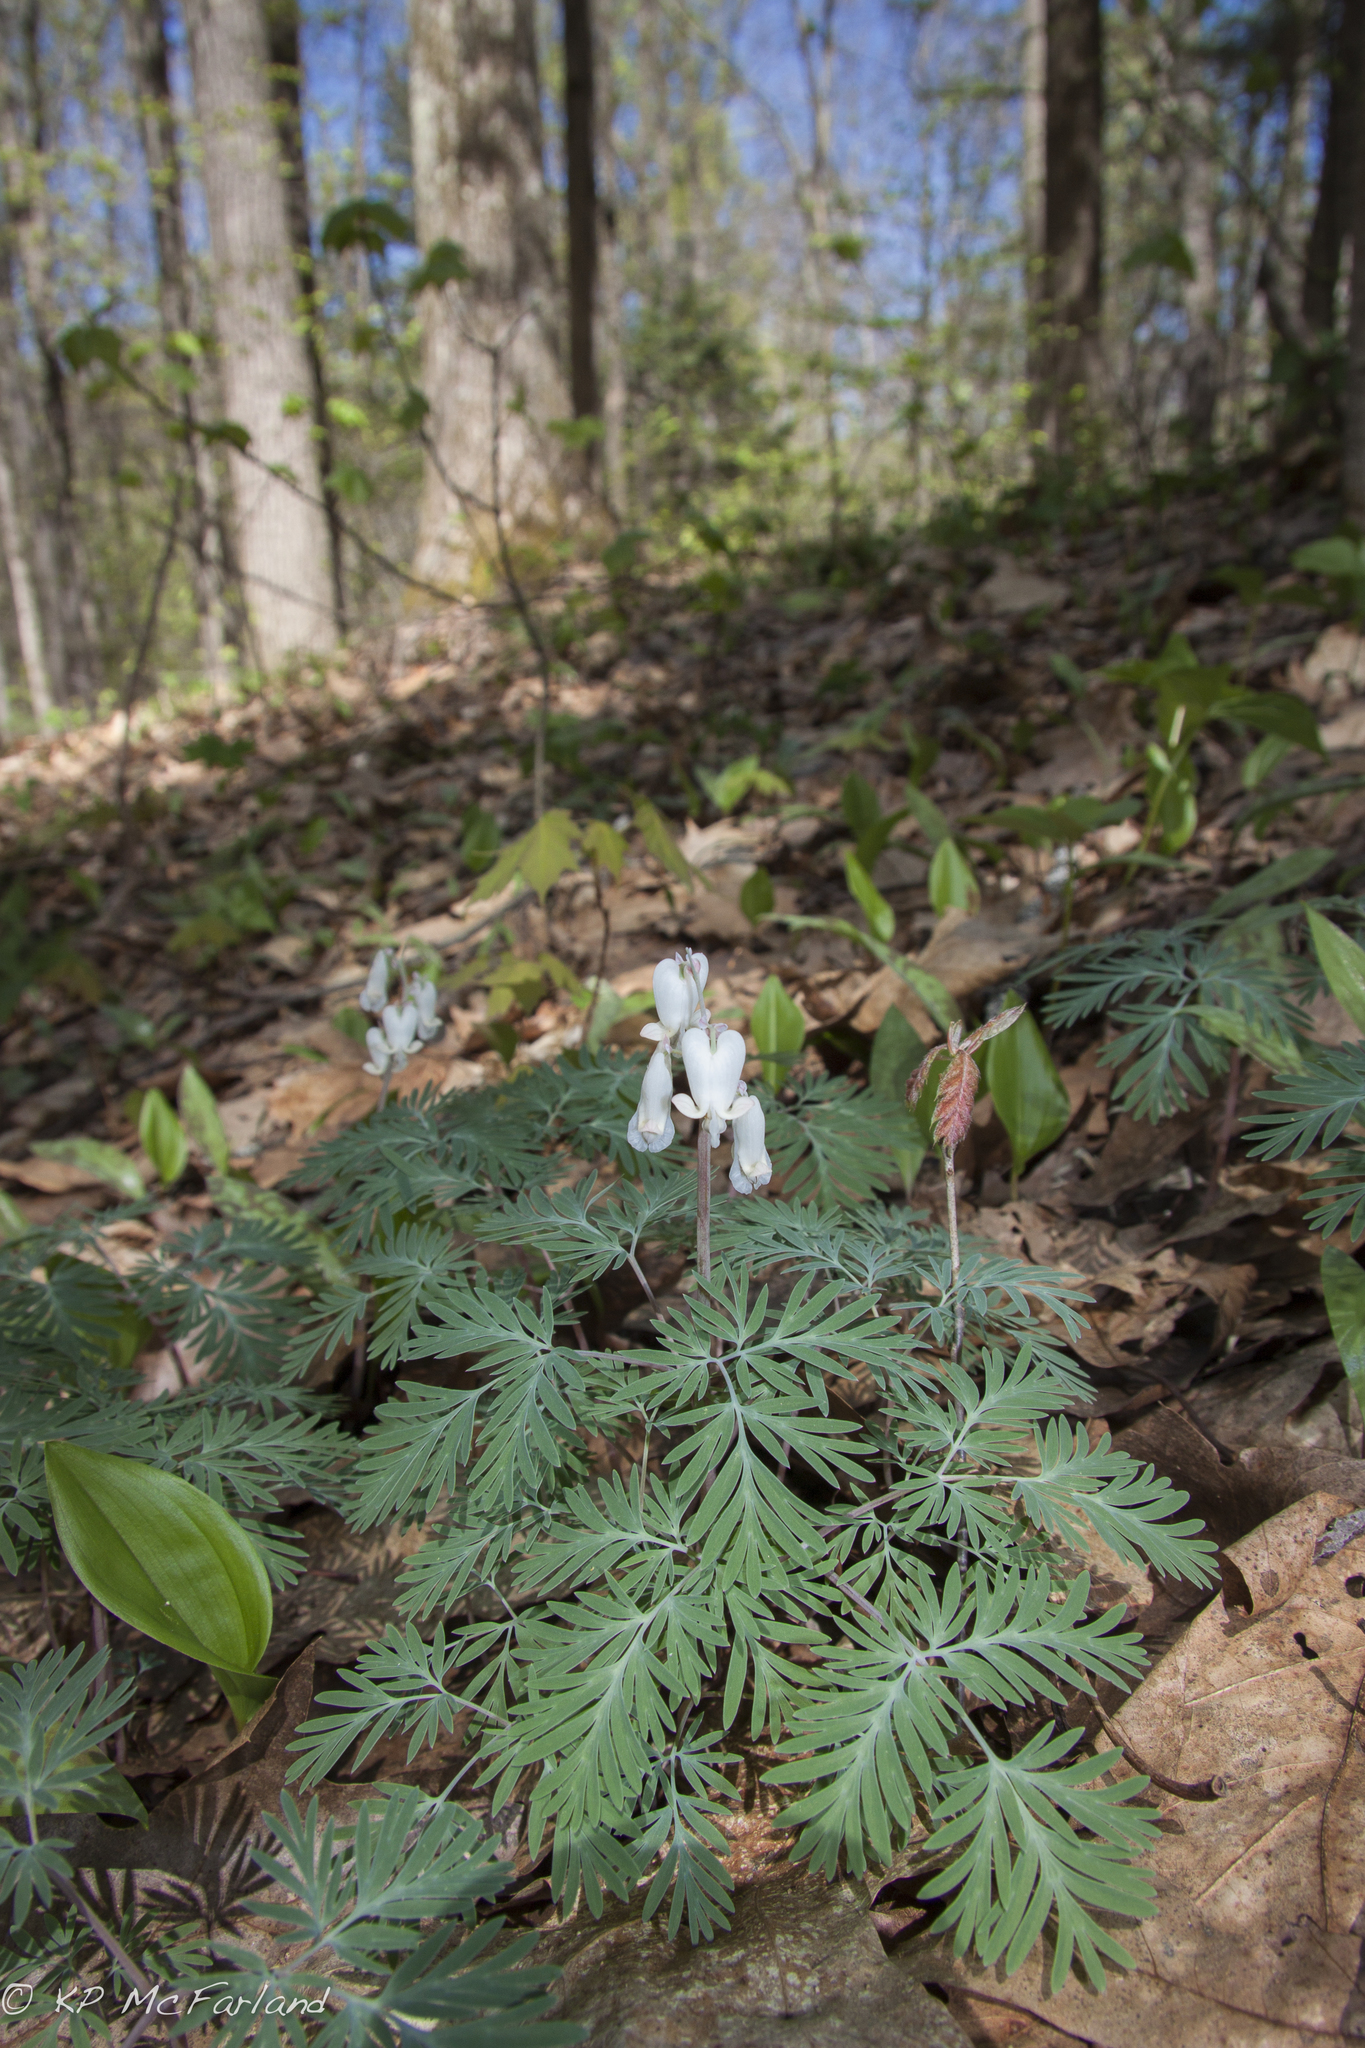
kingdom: Plantae
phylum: Tracheophyta
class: Magnoliopsida
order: Ranunculales
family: Papaveraceae
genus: Dicentra
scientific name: Dicentra canadensis
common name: Squirrel-corn
